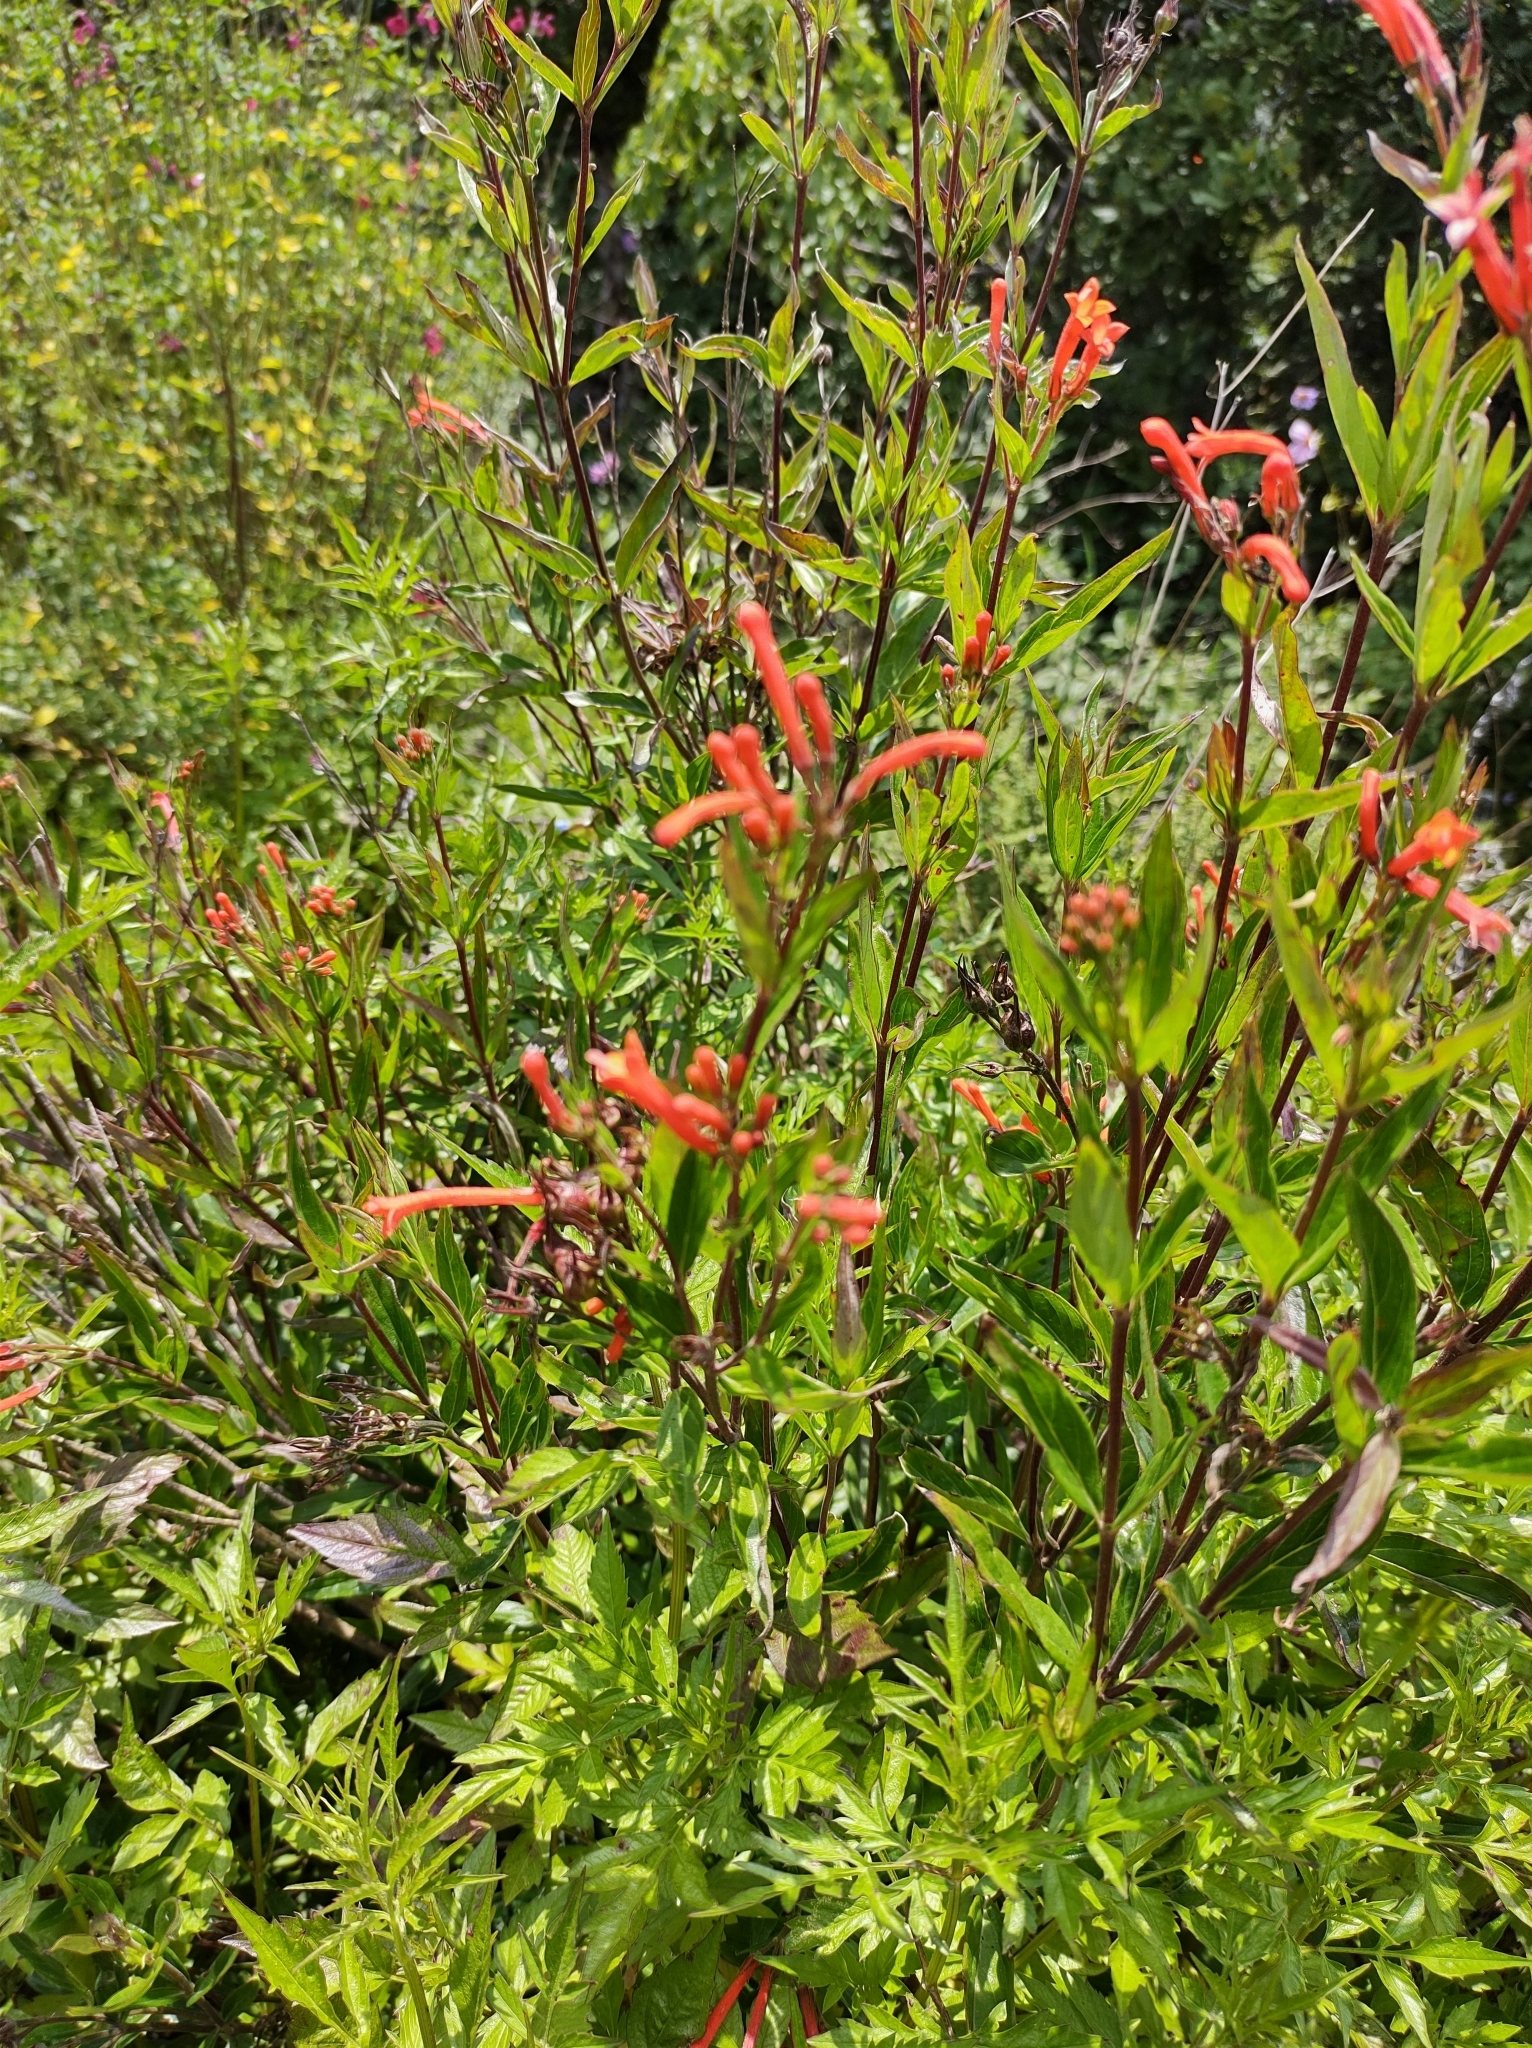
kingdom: Plantae
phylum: Tracheophyta
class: Magnoliopsida
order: Gentianales
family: Rubiaceae
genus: Bouvardia
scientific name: Bouvardia ternifolia
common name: Scarlet bouvardia
